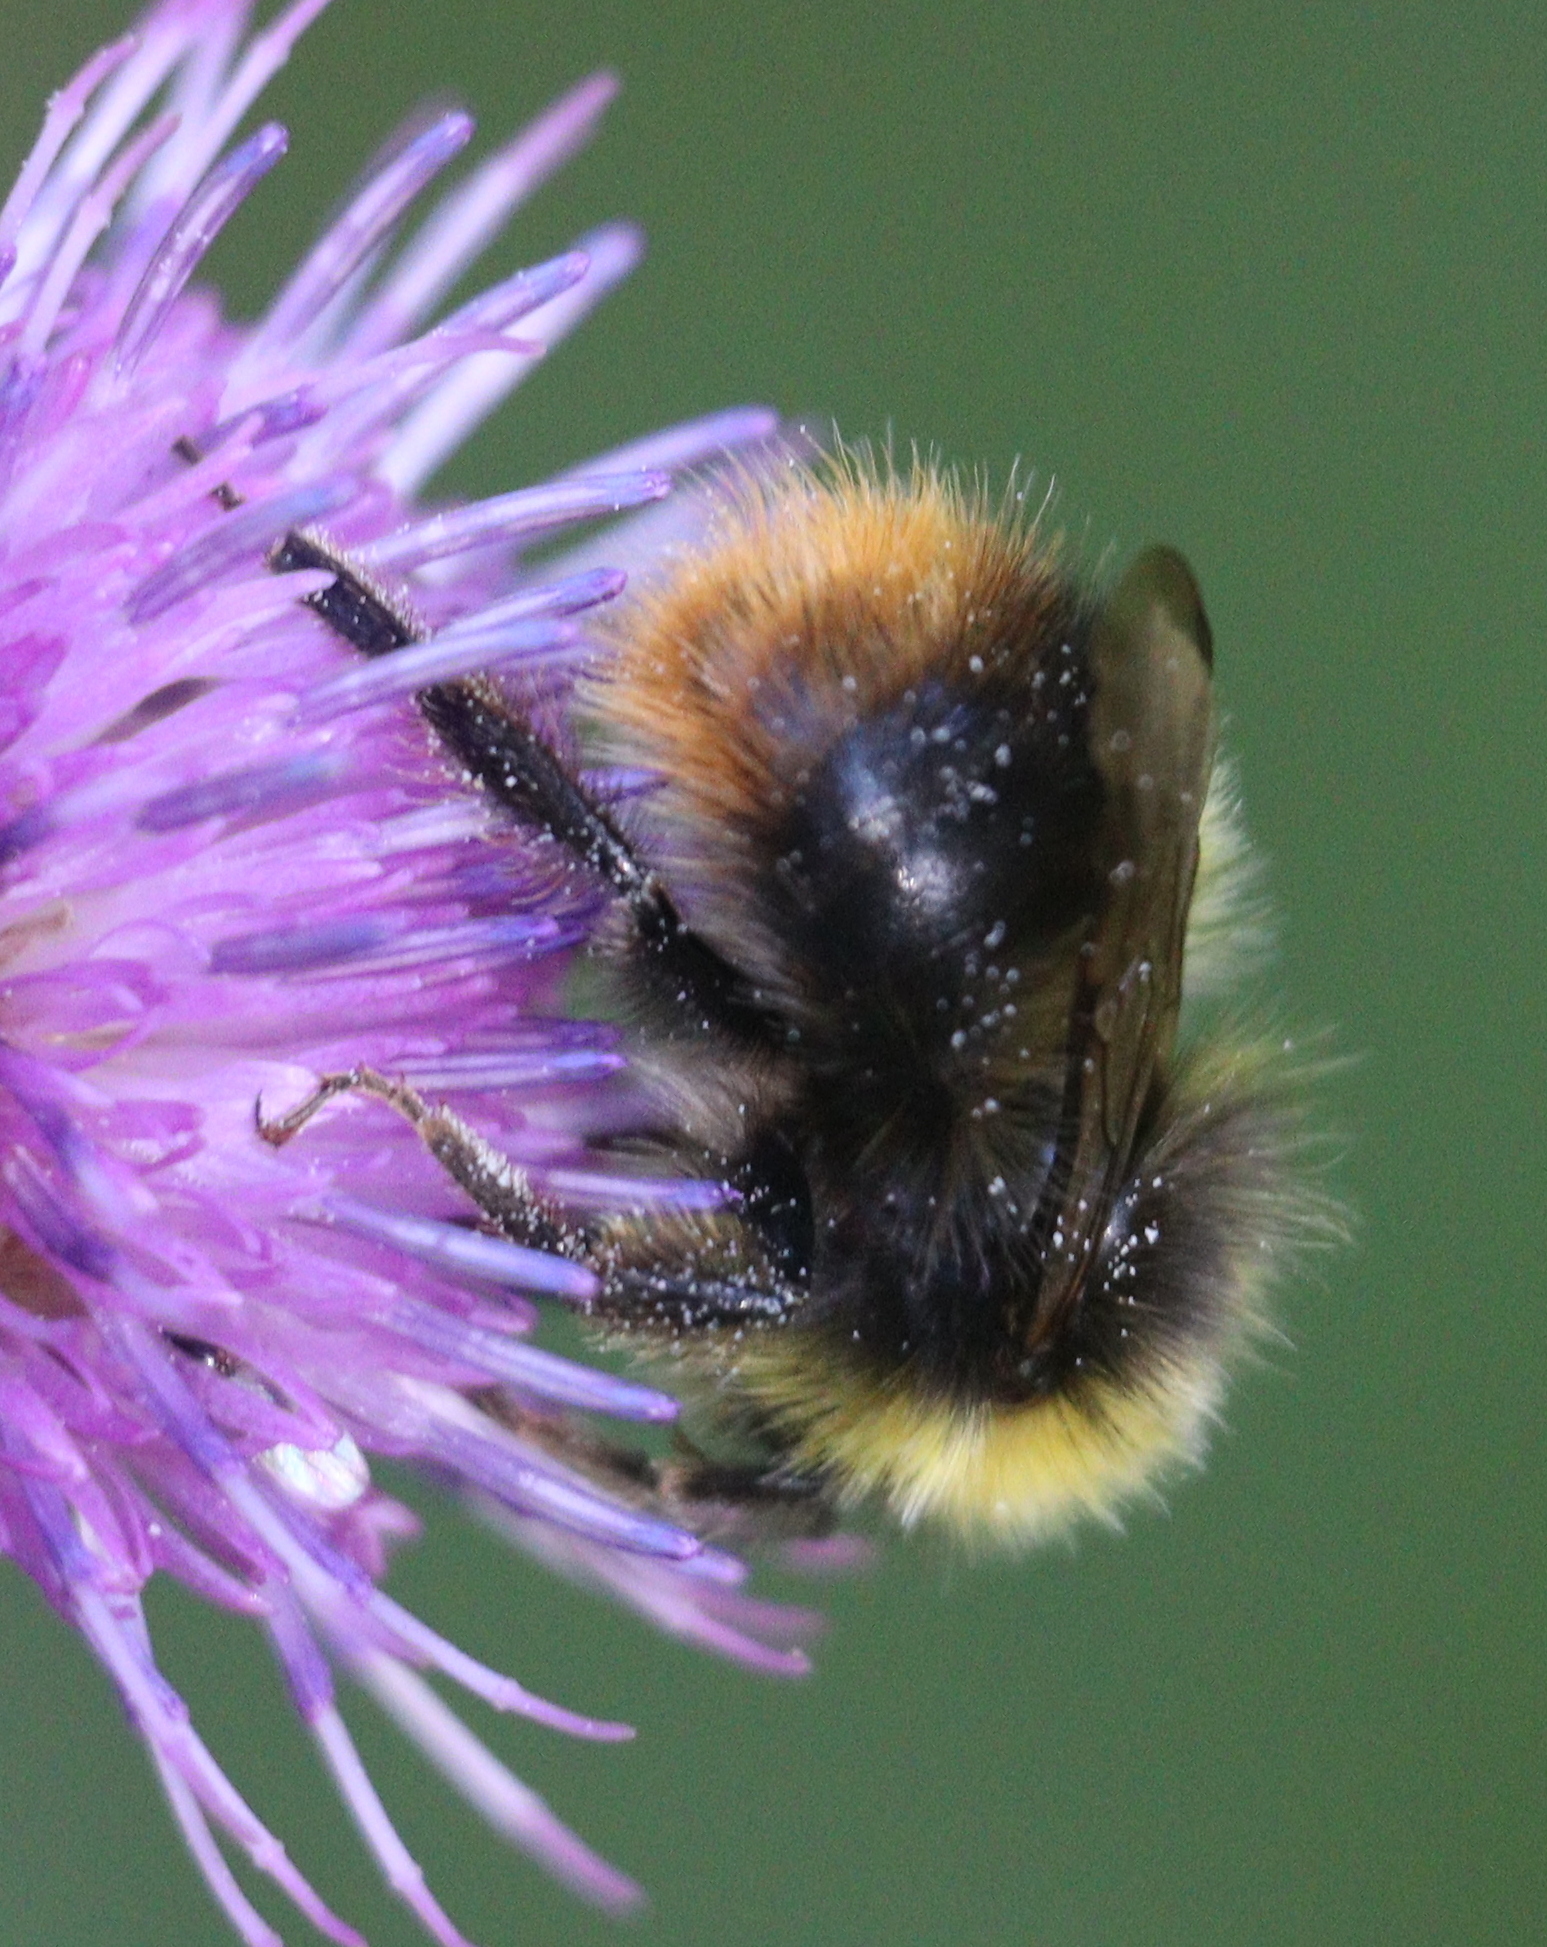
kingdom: Animalia
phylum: Arthropoda
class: Insecta
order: Hymenoptera
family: Apidae
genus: Bombus
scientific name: Bombus pratorum
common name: Early humble-bee
